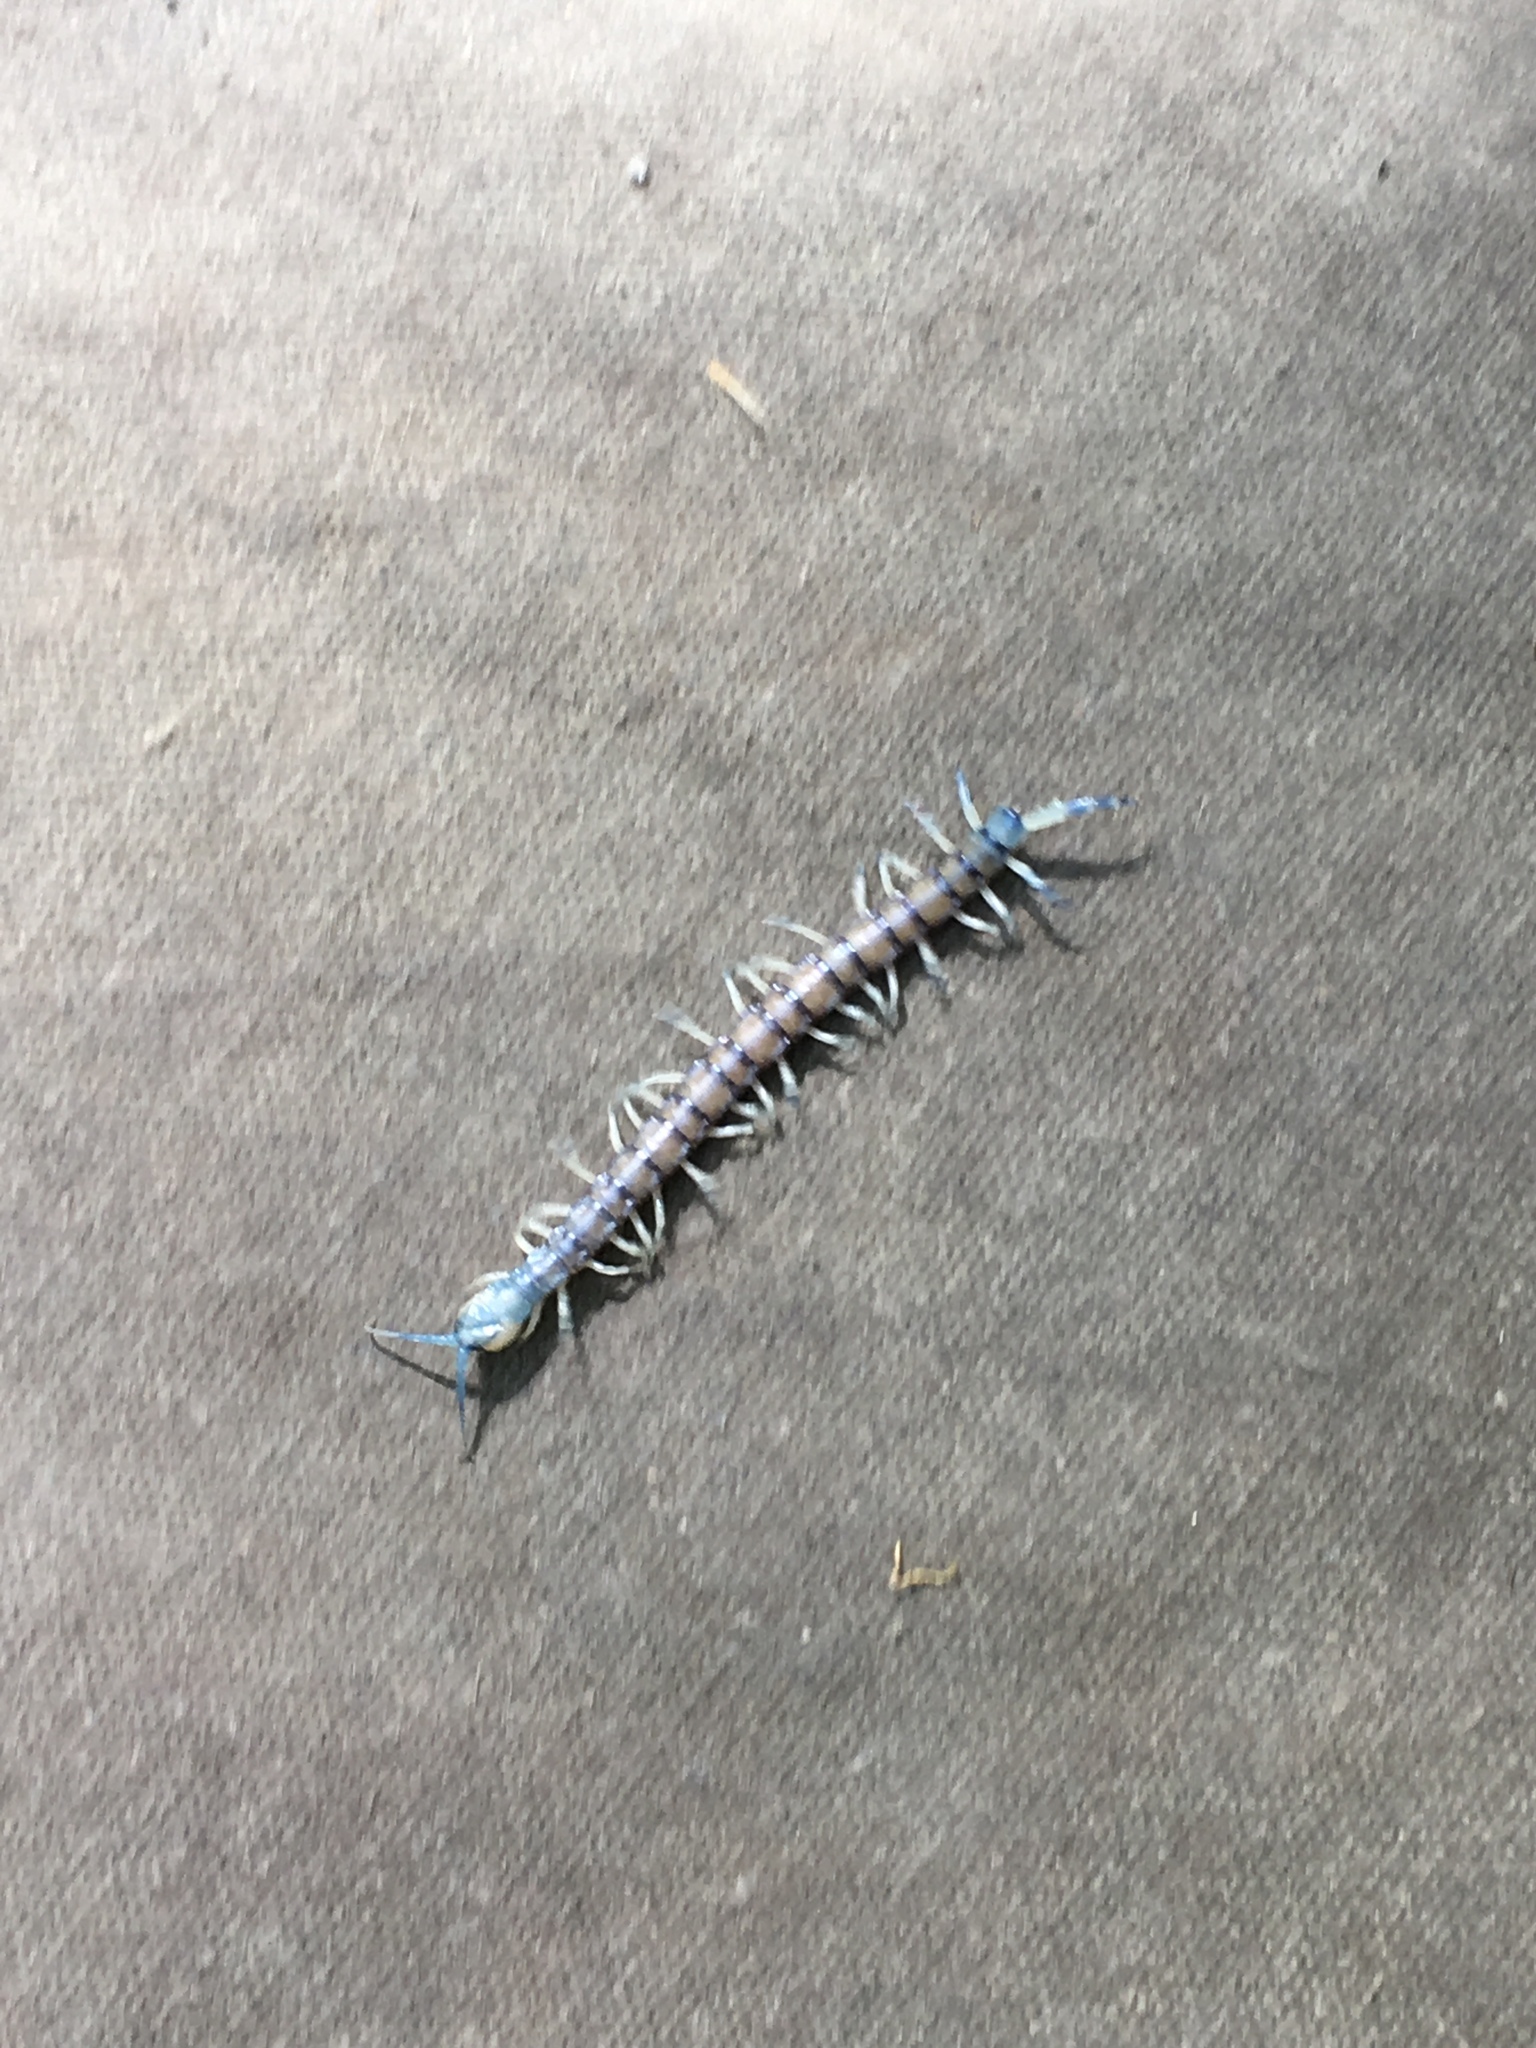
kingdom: Animalia
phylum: Arthropoda
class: Chilopoda
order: Scolopendromorpha
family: Scolopendridae
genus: Hemiscolopendra
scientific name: Hemiscolopendra marginata
